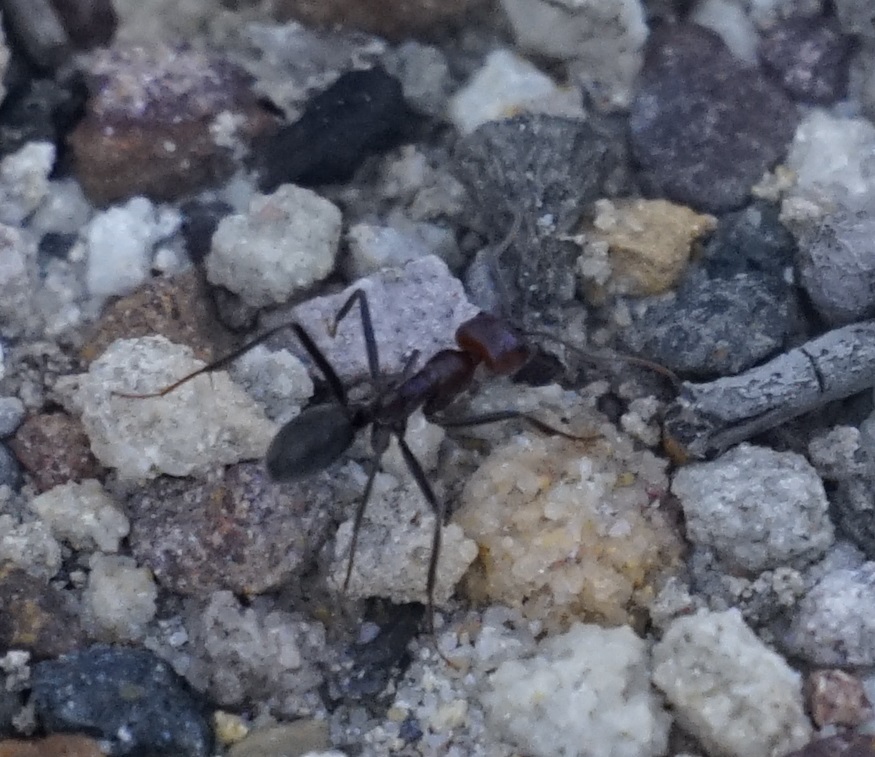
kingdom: Animalia
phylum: Arthropoda
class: Insecta
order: Hymenoptera
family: Formicidae
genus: Iridomyrmex
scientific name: Iridomyrmex purpureus
